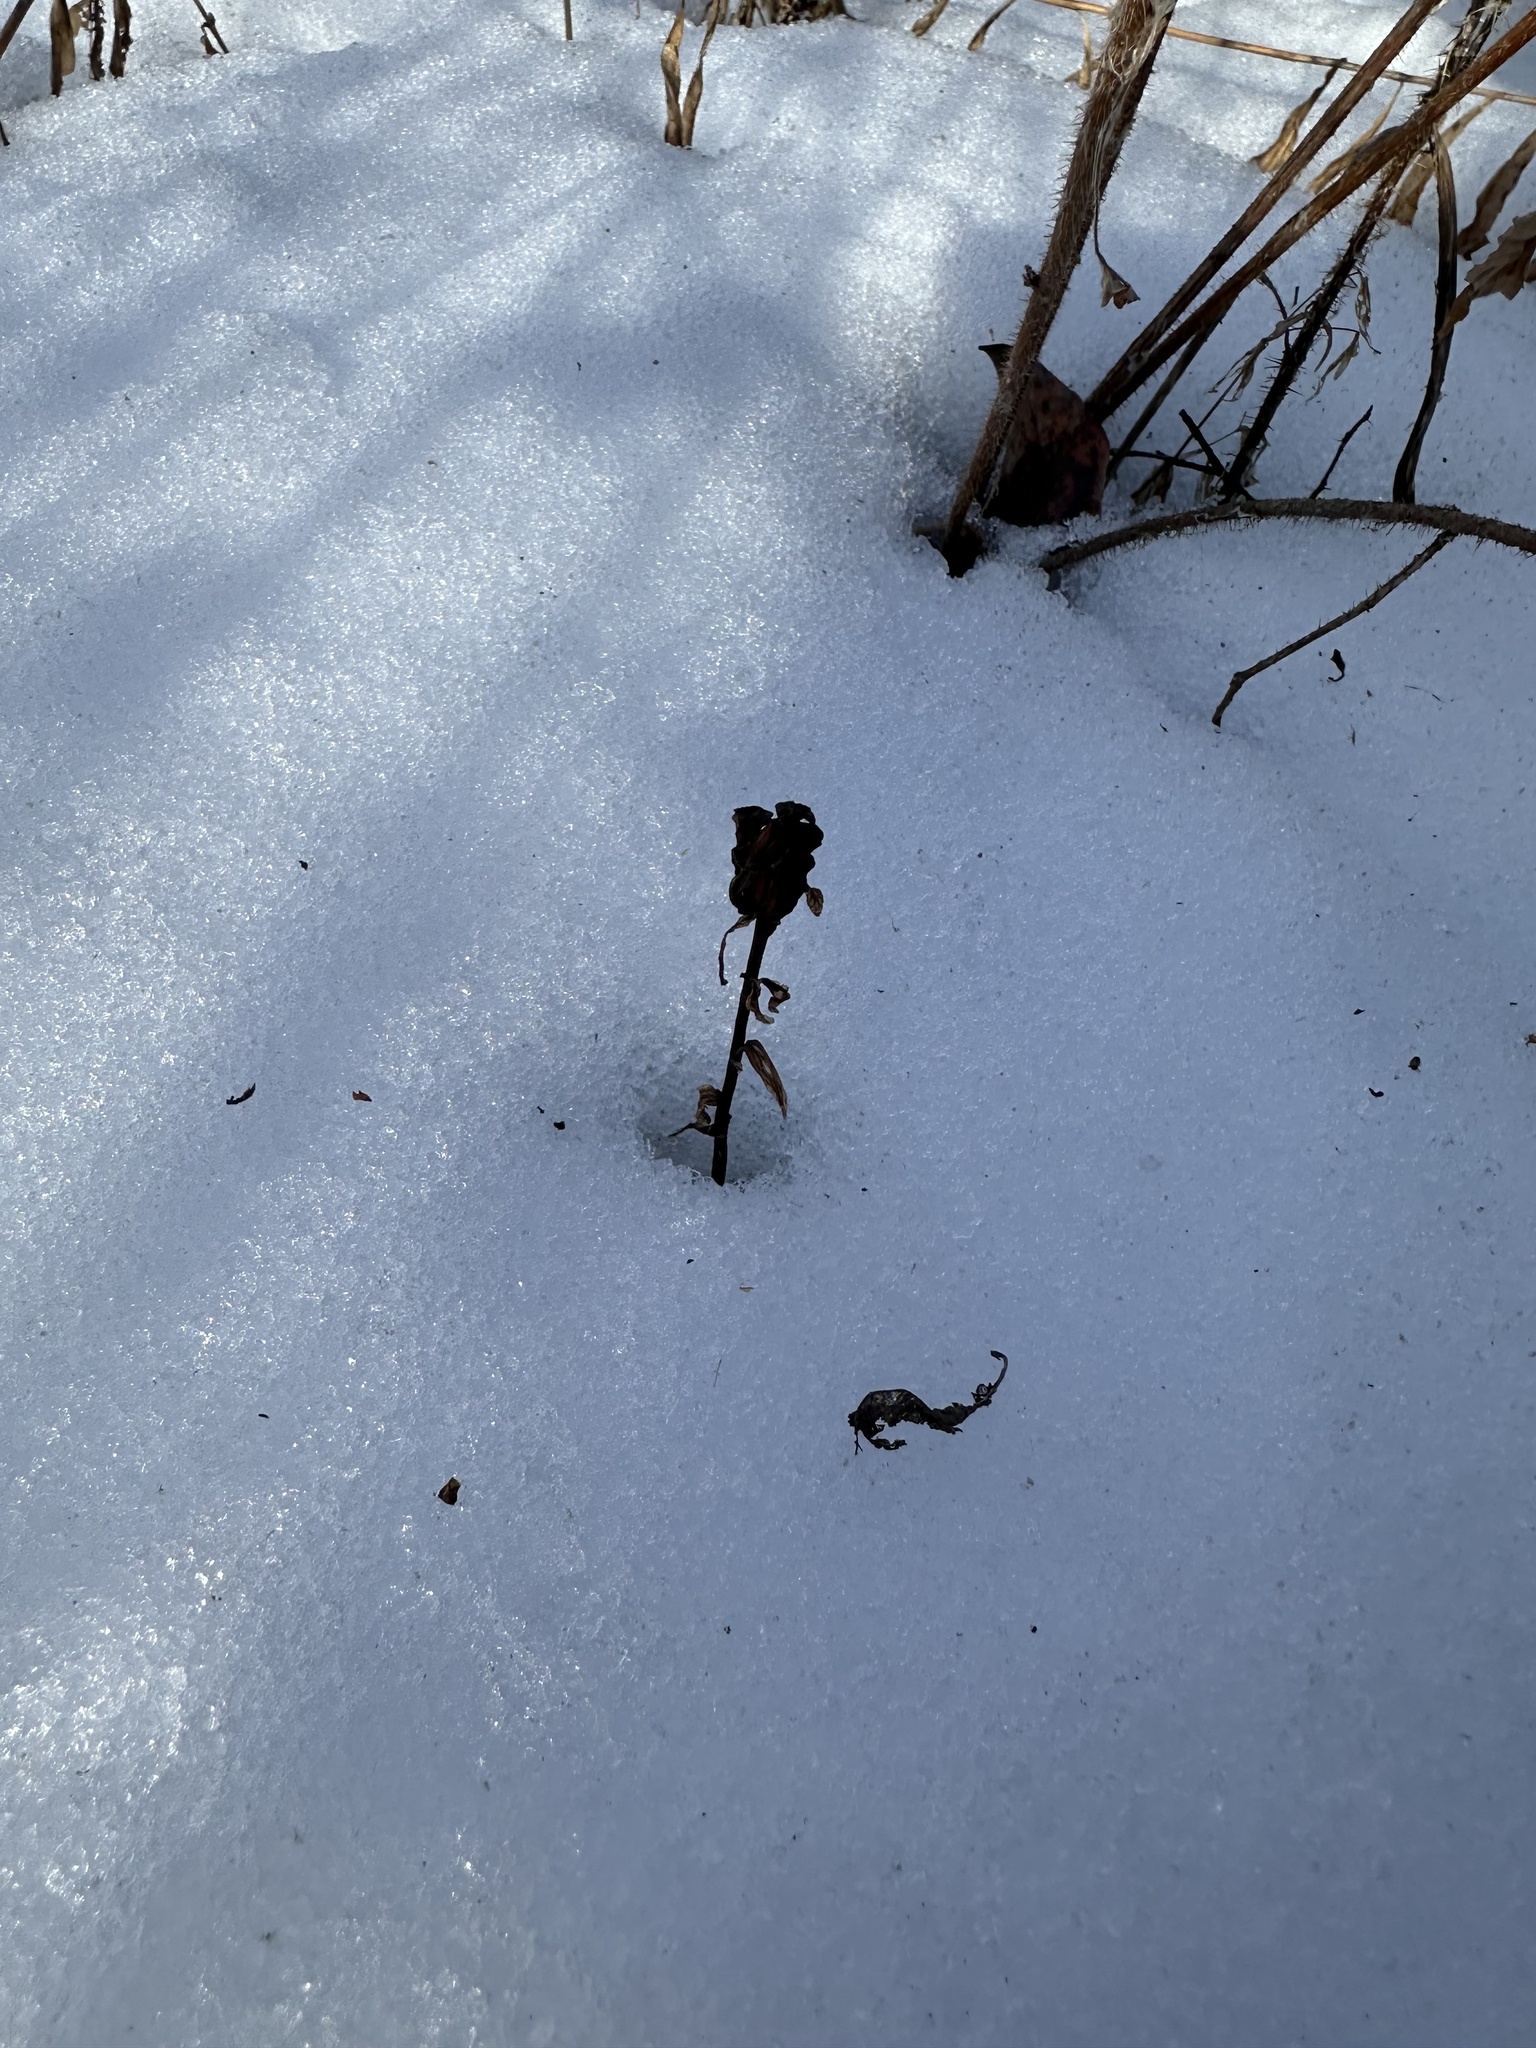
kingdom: Plantae
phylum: Tracheophyta
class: Magnoliopsida
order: Ericales
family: Ericaceae
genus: Monotropa
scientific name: Monotropa uniflora
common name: Convulsion root
